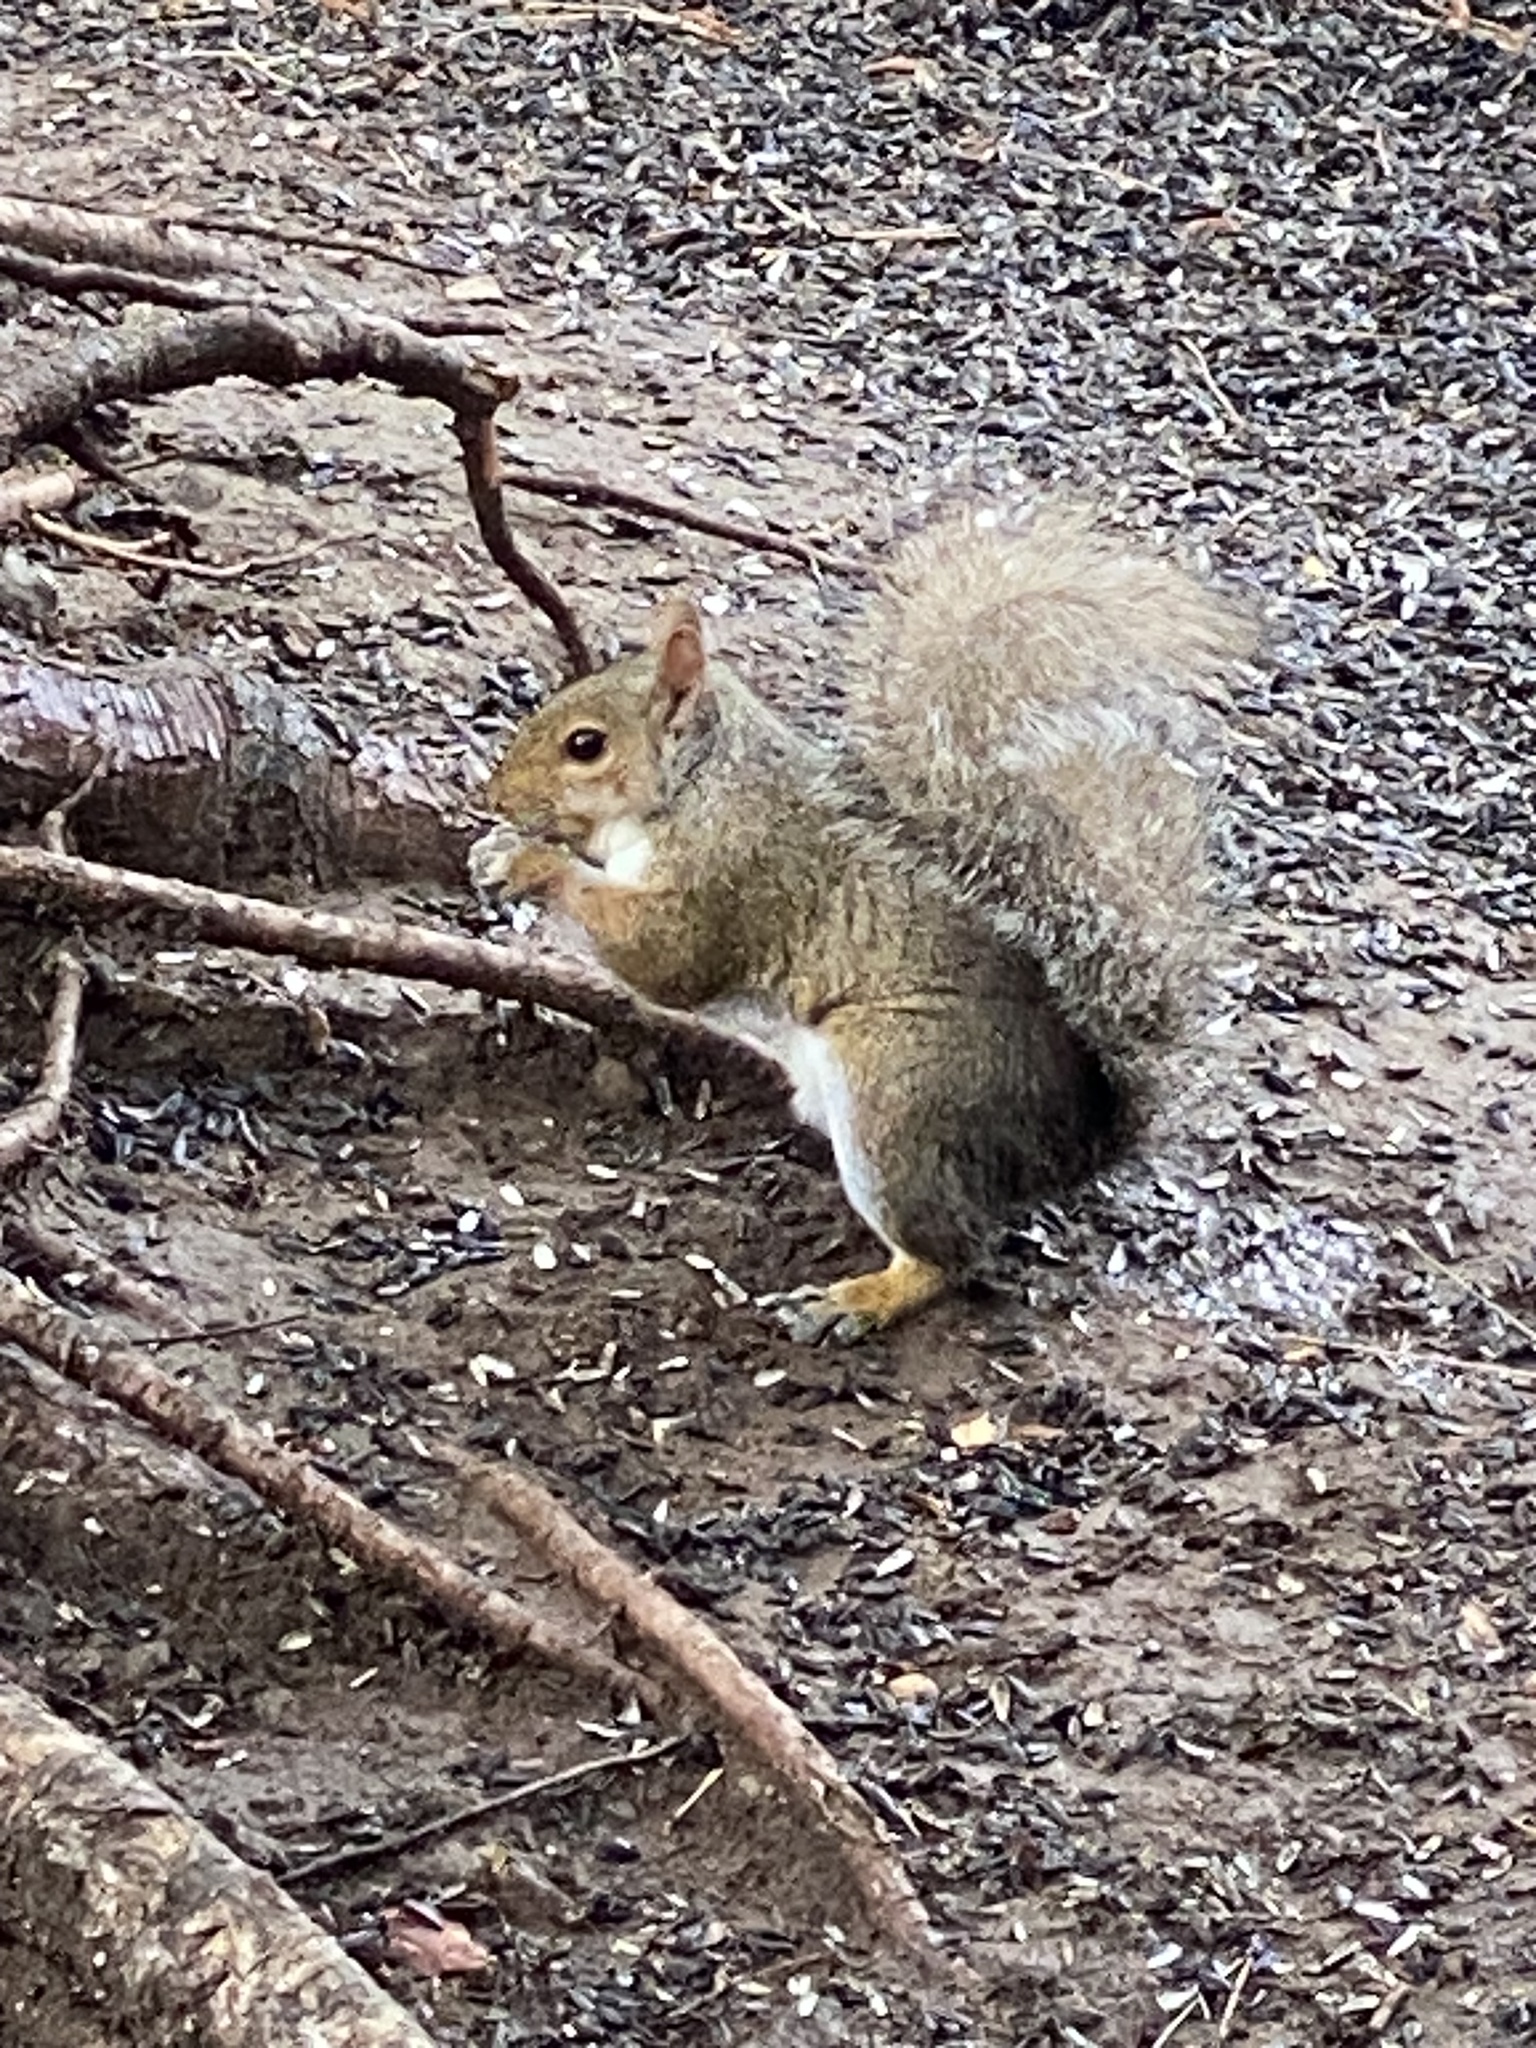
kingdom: Animalia
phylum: Chordata
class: Mammalia
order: Rodentia
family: Sciuridae
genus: Sciurus
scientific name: Sciurus carolinensis
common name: Eastern gray squirrel
